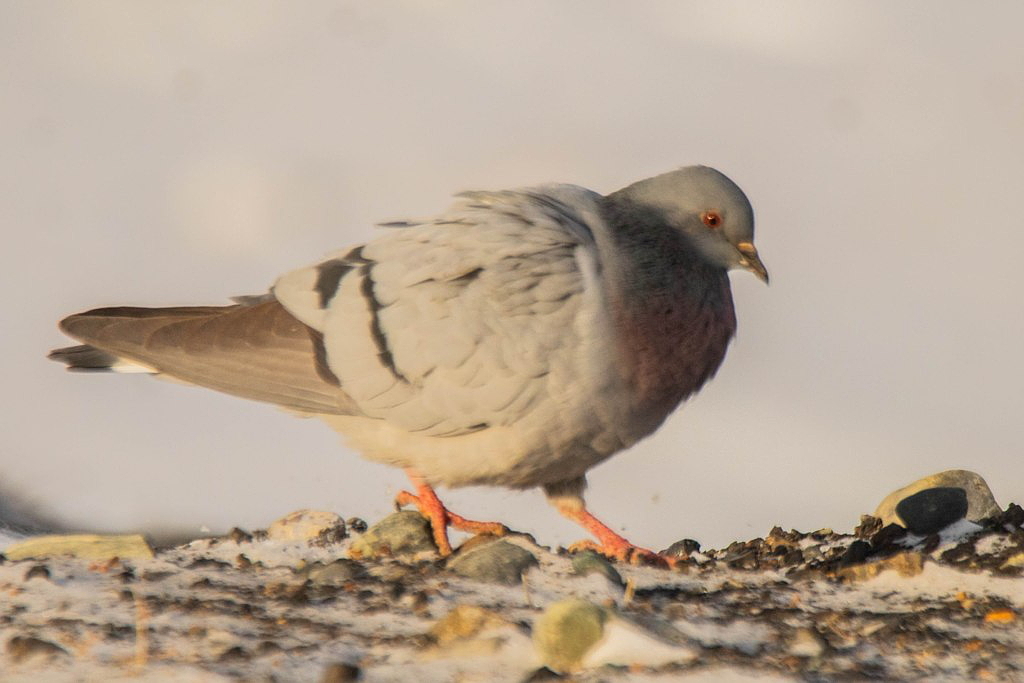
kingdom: Animalia
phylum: Chordata
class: Aves
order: Columbiformes
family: Columbidae
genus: Columba
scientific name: Columba rupestris
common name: Hill pigeon
